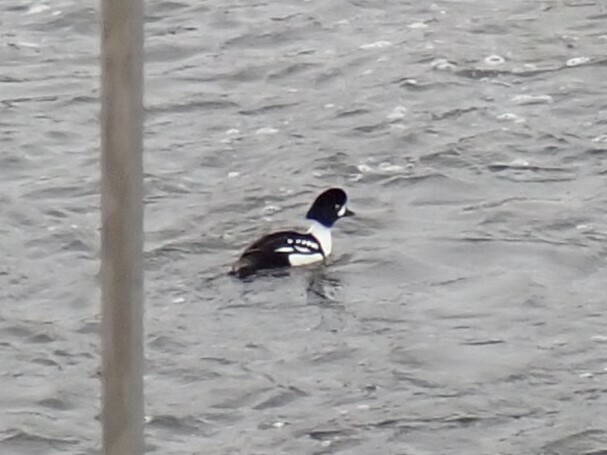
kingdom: Animalia
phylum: Chordata
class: Aves
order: Anseriformes
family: Anatidae
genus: Bucephala
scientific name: Bucephala islandica
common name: Barrow's goldeneye
